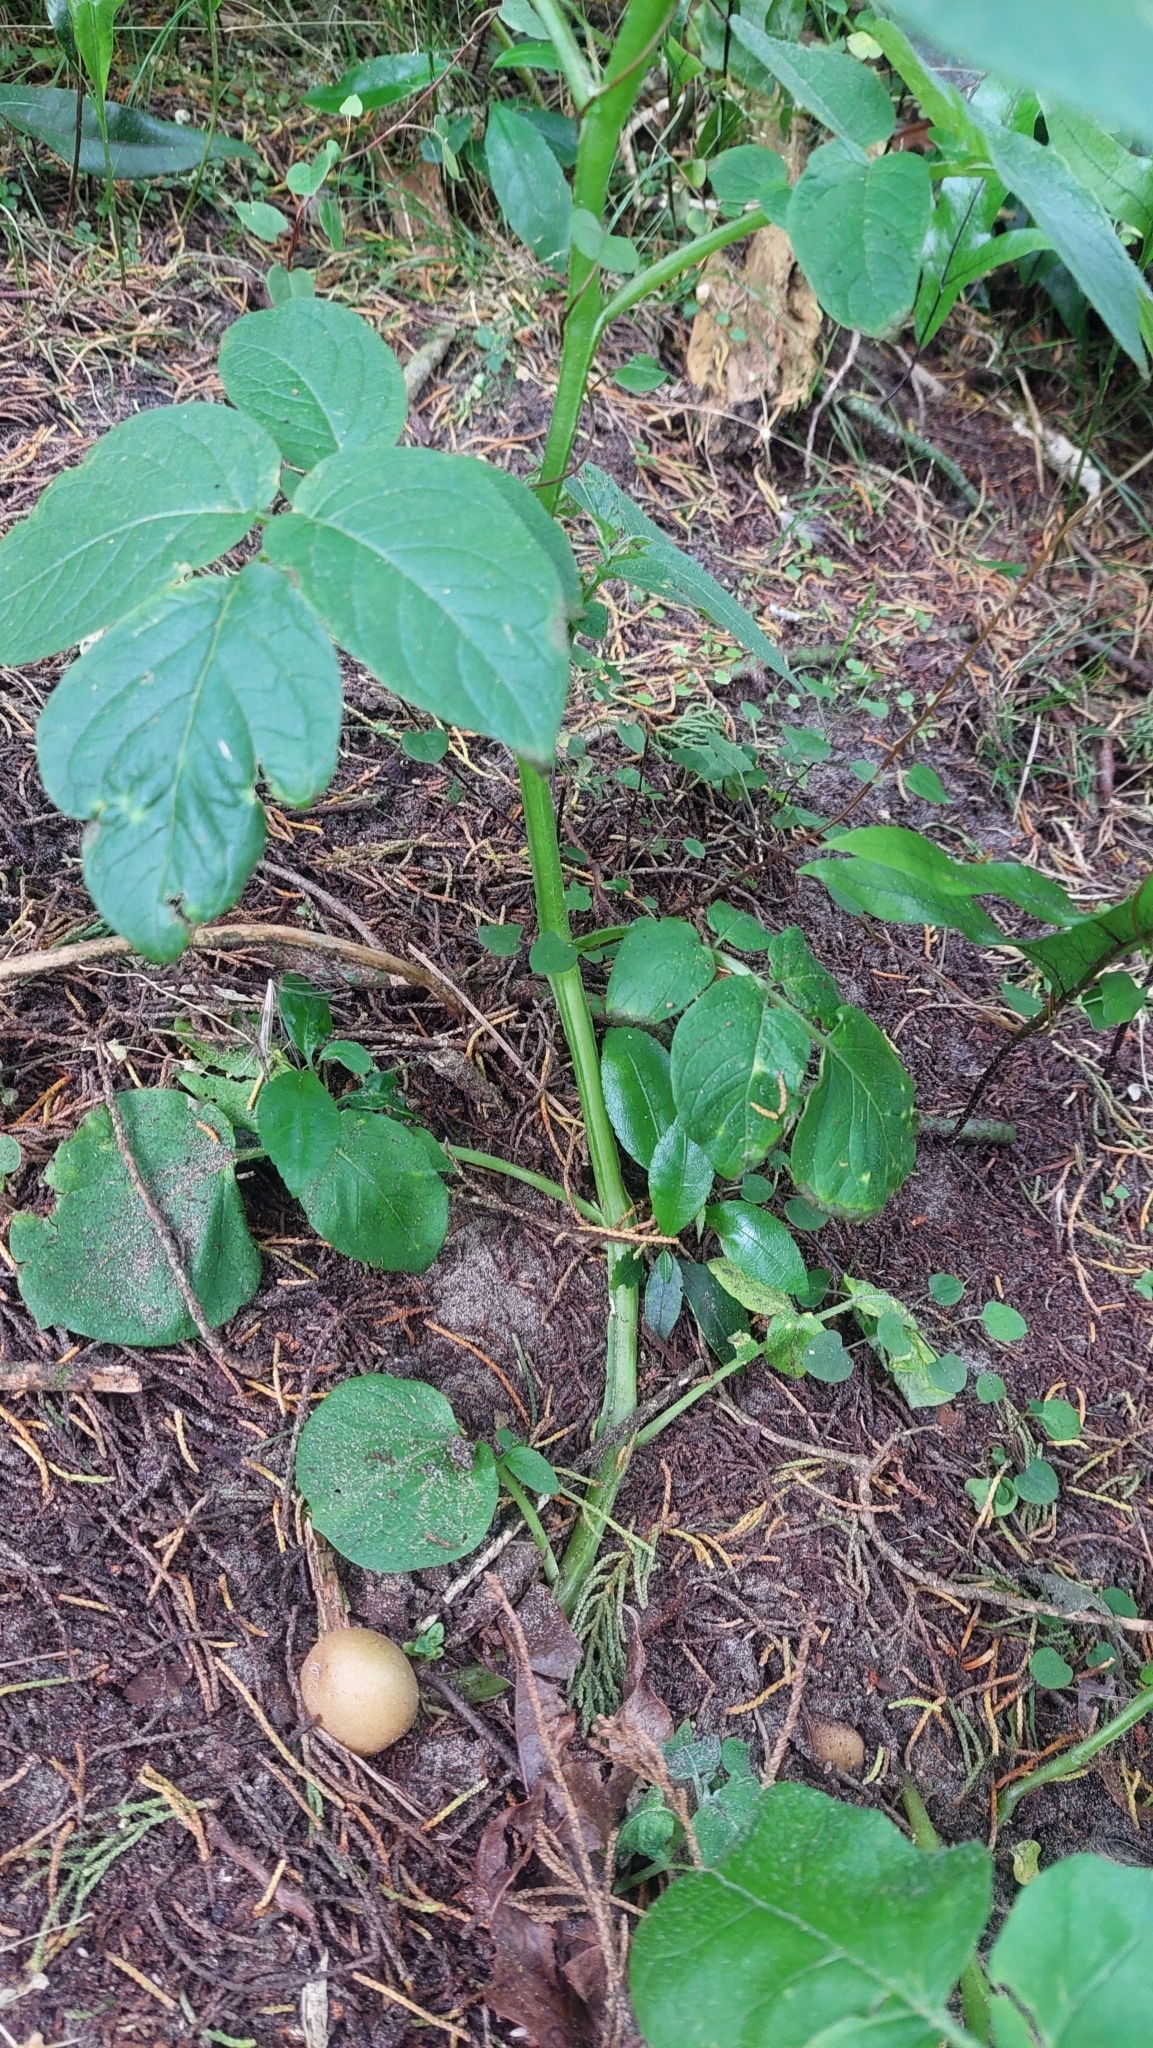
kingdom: Plantae
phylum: Tracheophyta
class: Magnoliopsida
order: Solanales
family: Solanaceae
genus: Solanum
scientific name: Solanum tuberosum
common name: Potato
